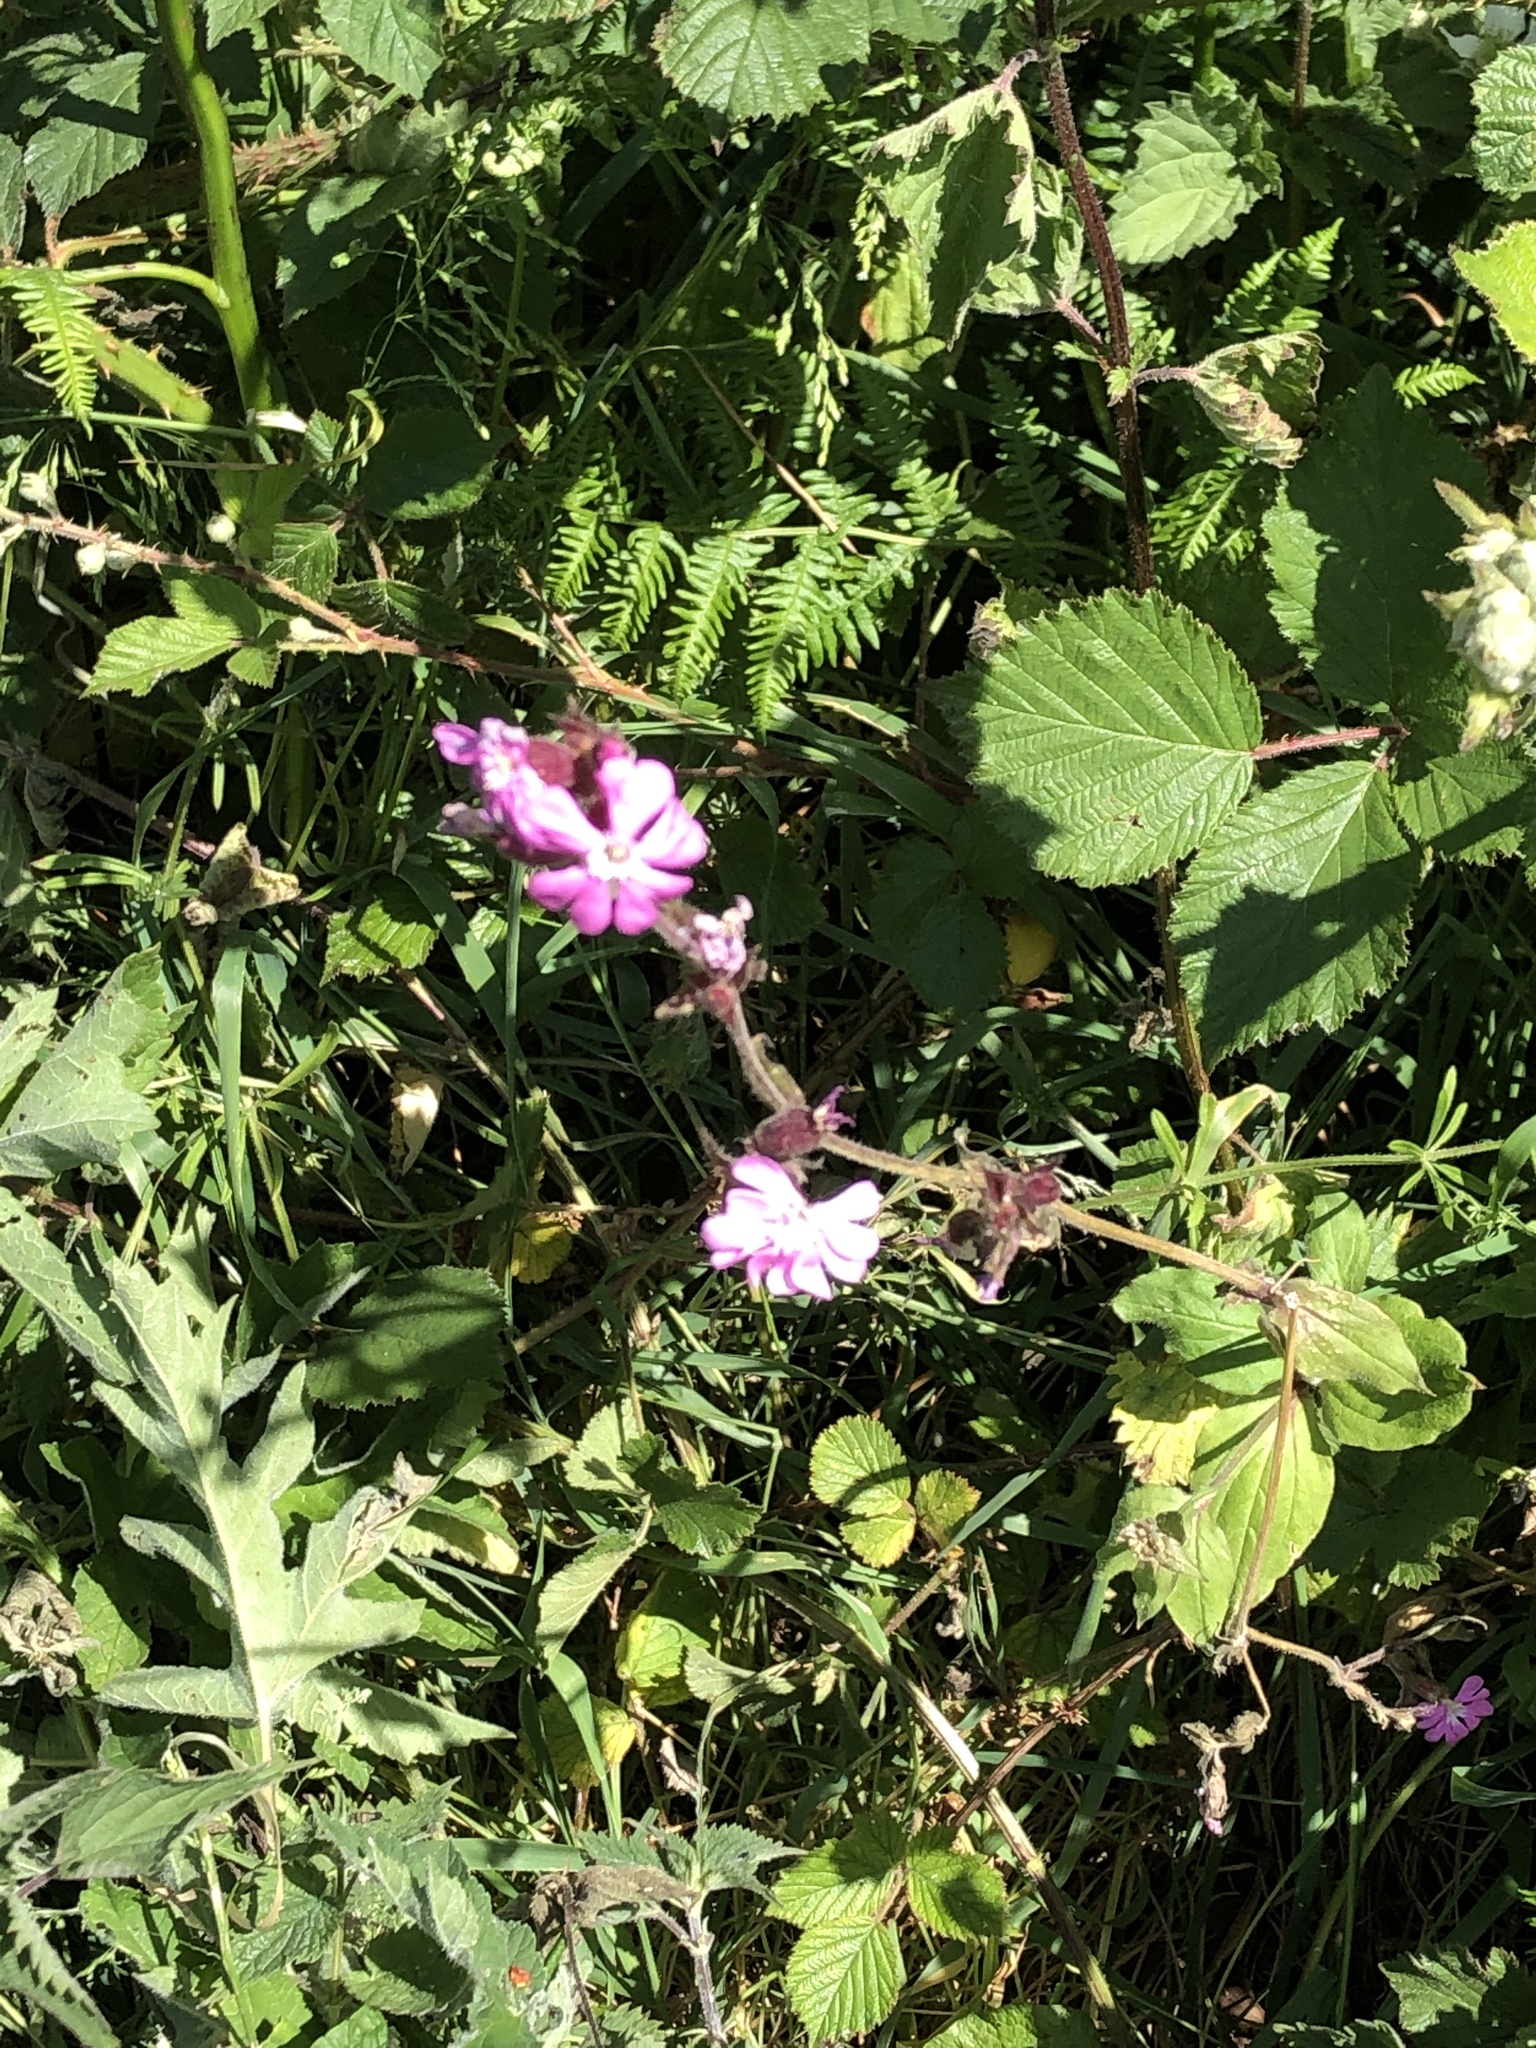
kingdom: Plantae
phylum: Tracheophyta
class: Magnoliopsida
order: Caryophyllales
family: Caryophyllaceae
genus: Silene
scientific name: Silene dioica
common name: Red campion
